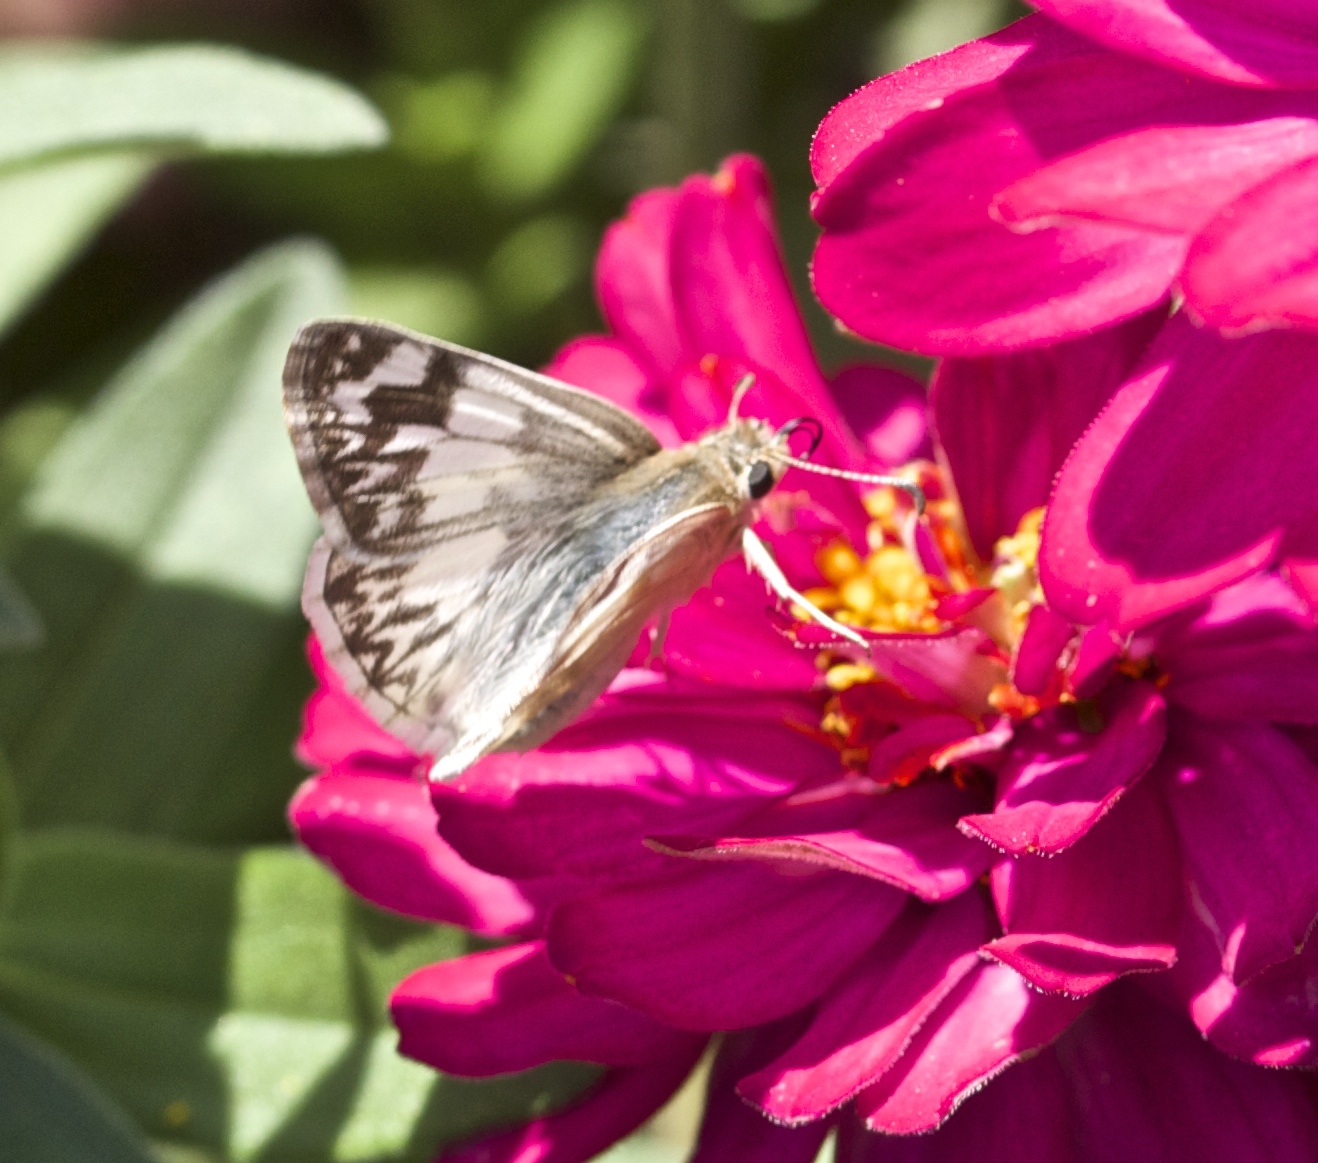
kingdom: Animalia
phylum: Arthropoda
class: Insecta
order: Lepidoptera
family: Hesperiidae
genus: Heliopetes
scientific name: Heliopetes ericetorum
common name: Northern white-skipper
